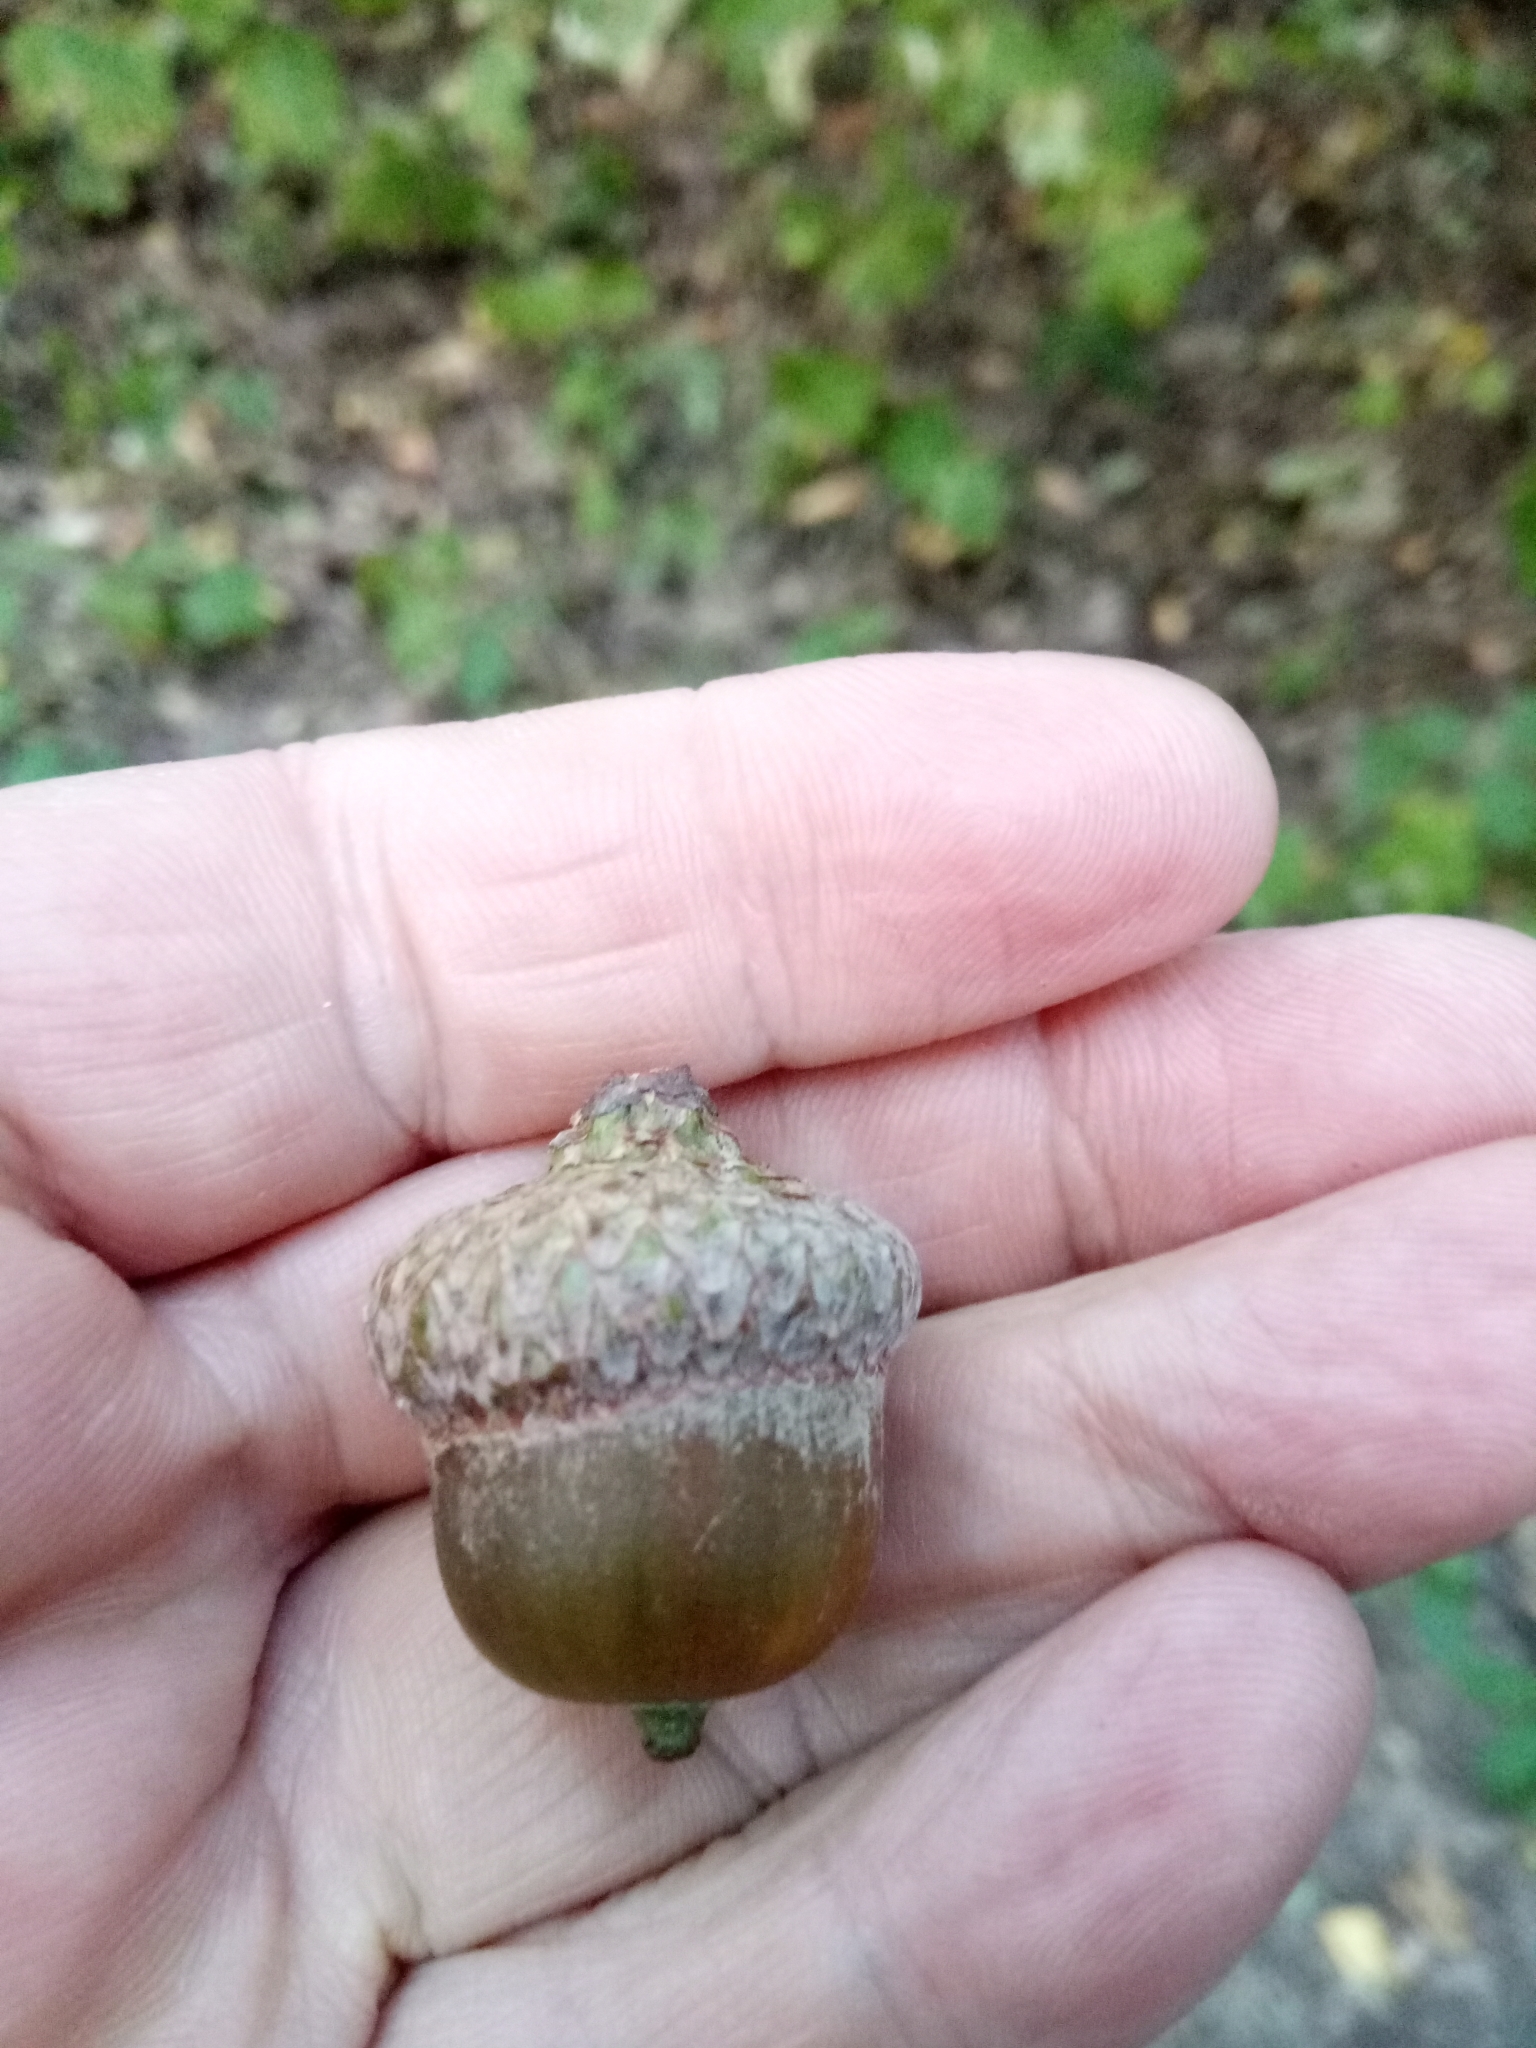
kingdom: Plantae
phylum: Tracheophyta
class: Magnoliopsida
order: Fagales
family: Fagaceae
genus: Quercus
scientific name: Quercus rubra
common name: Red oak
